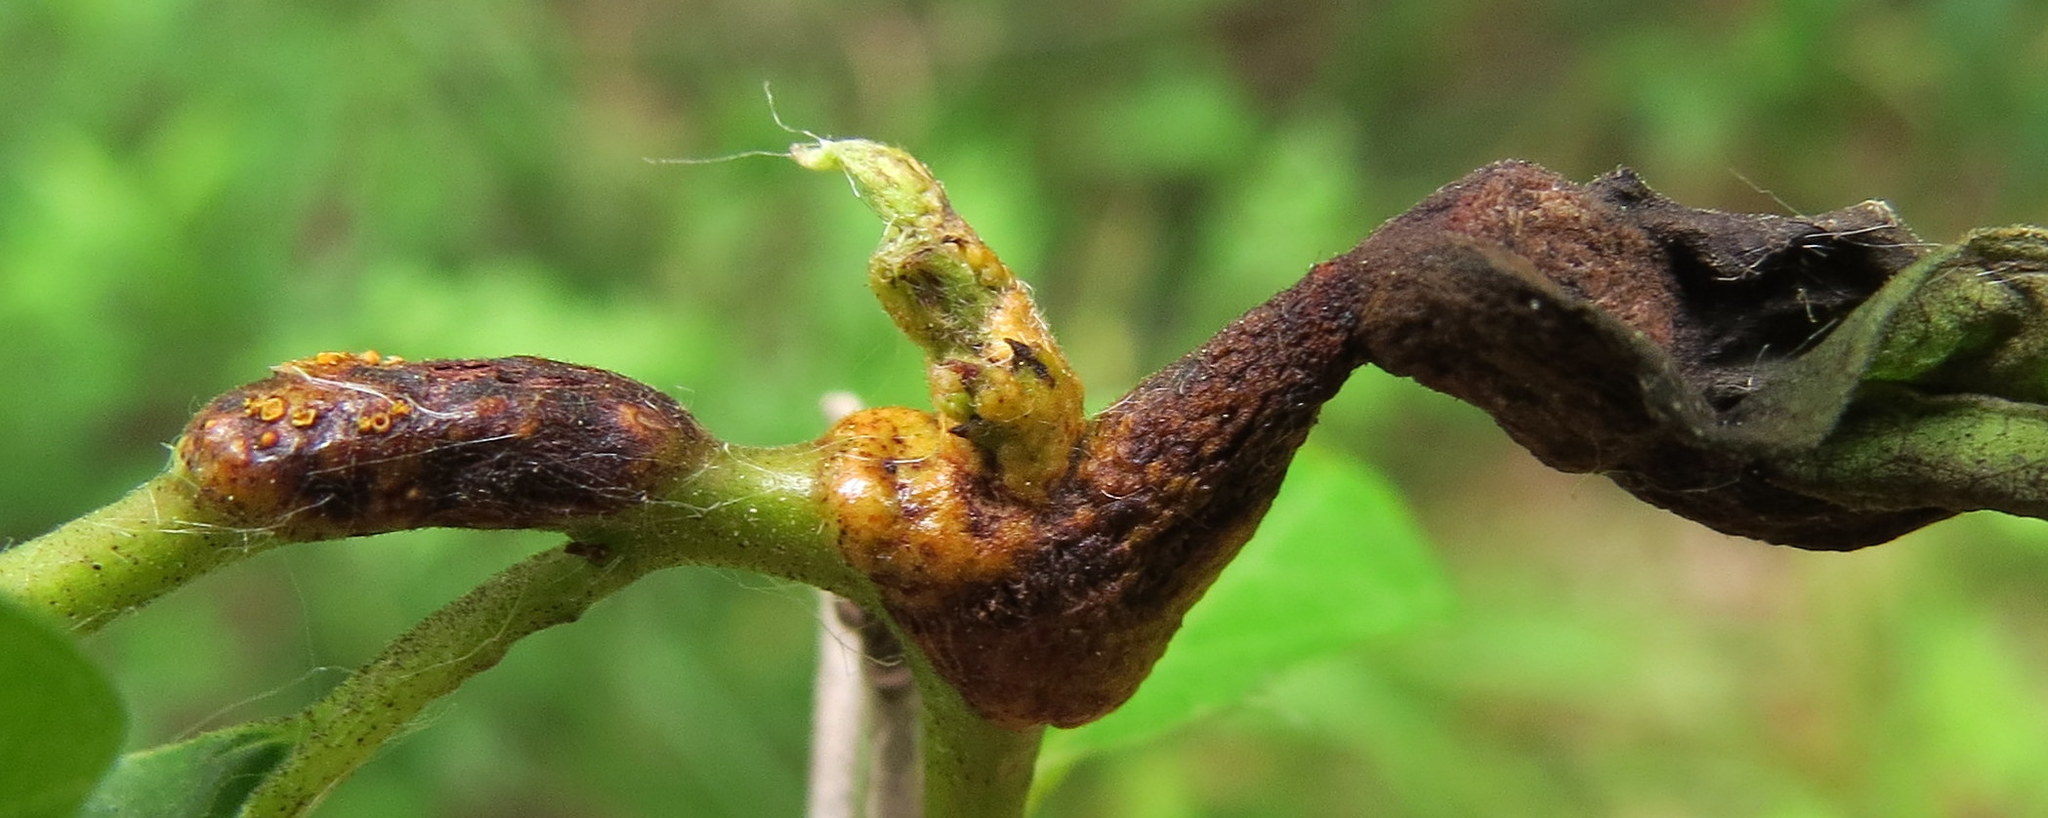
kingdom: Fungi
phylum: Basidiomycota
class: Pucciniomycetes
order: Pucciniales
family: Pucciniaceae
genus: Puccinia
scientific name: Puccinia coronata
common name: Crown rust
